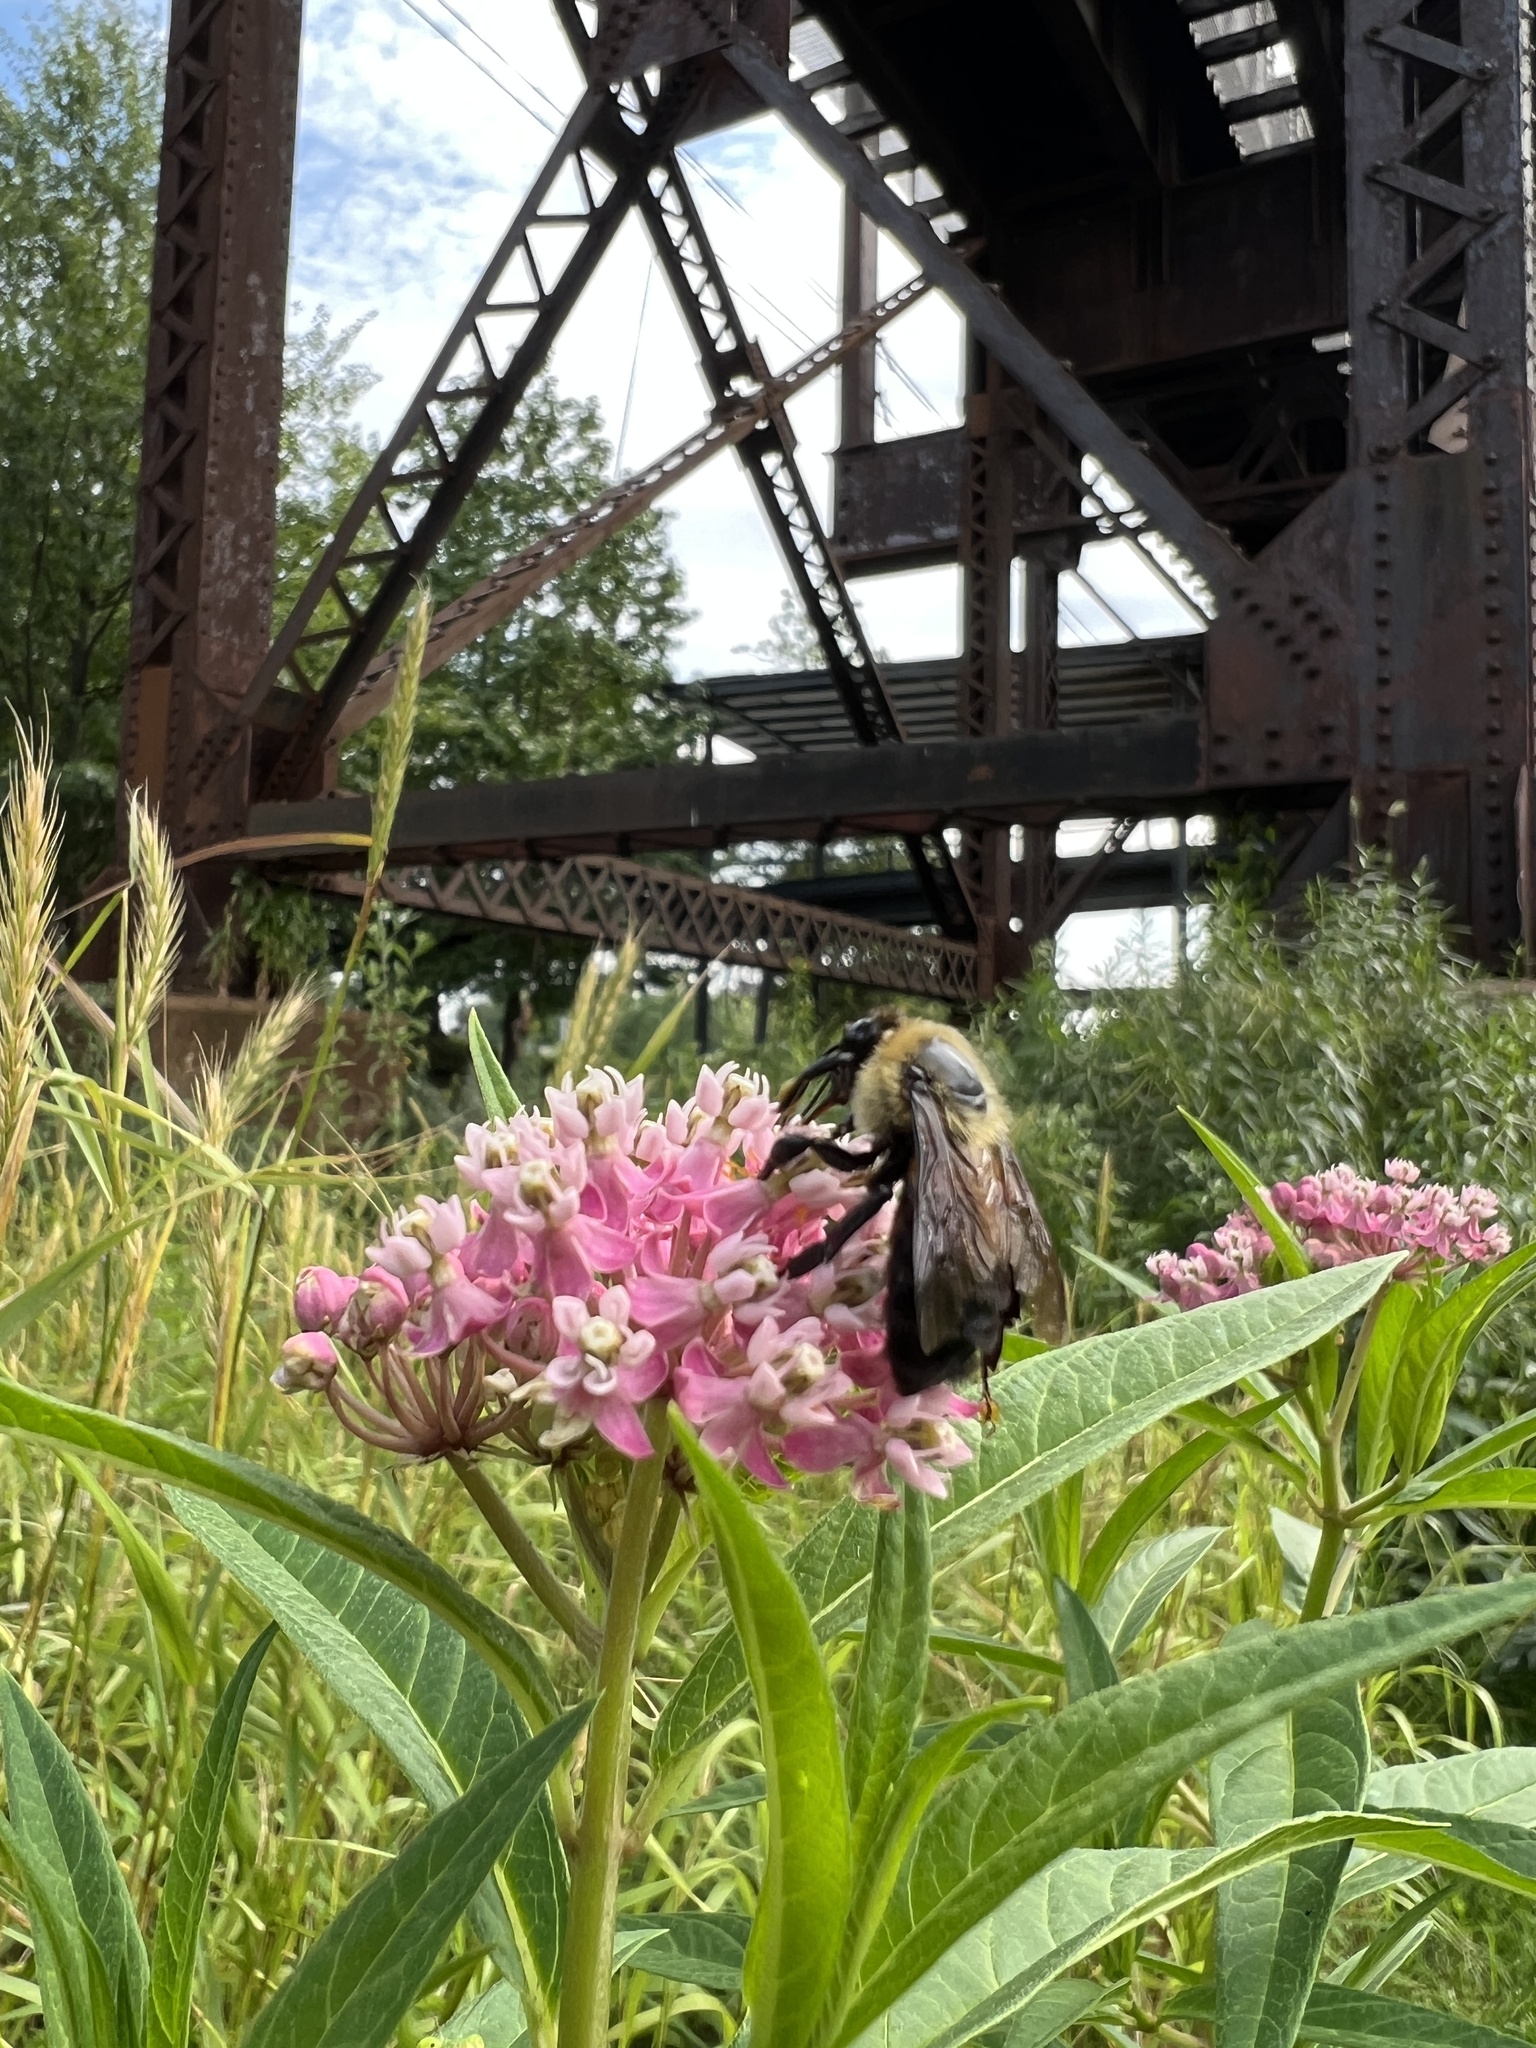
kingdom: Animalia
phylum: Arthropoda
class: Insecta
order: Hymenoptera
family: Apidae
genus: Bombus
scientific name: Bombus griseocollis
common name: Brown-belted bumble bee
